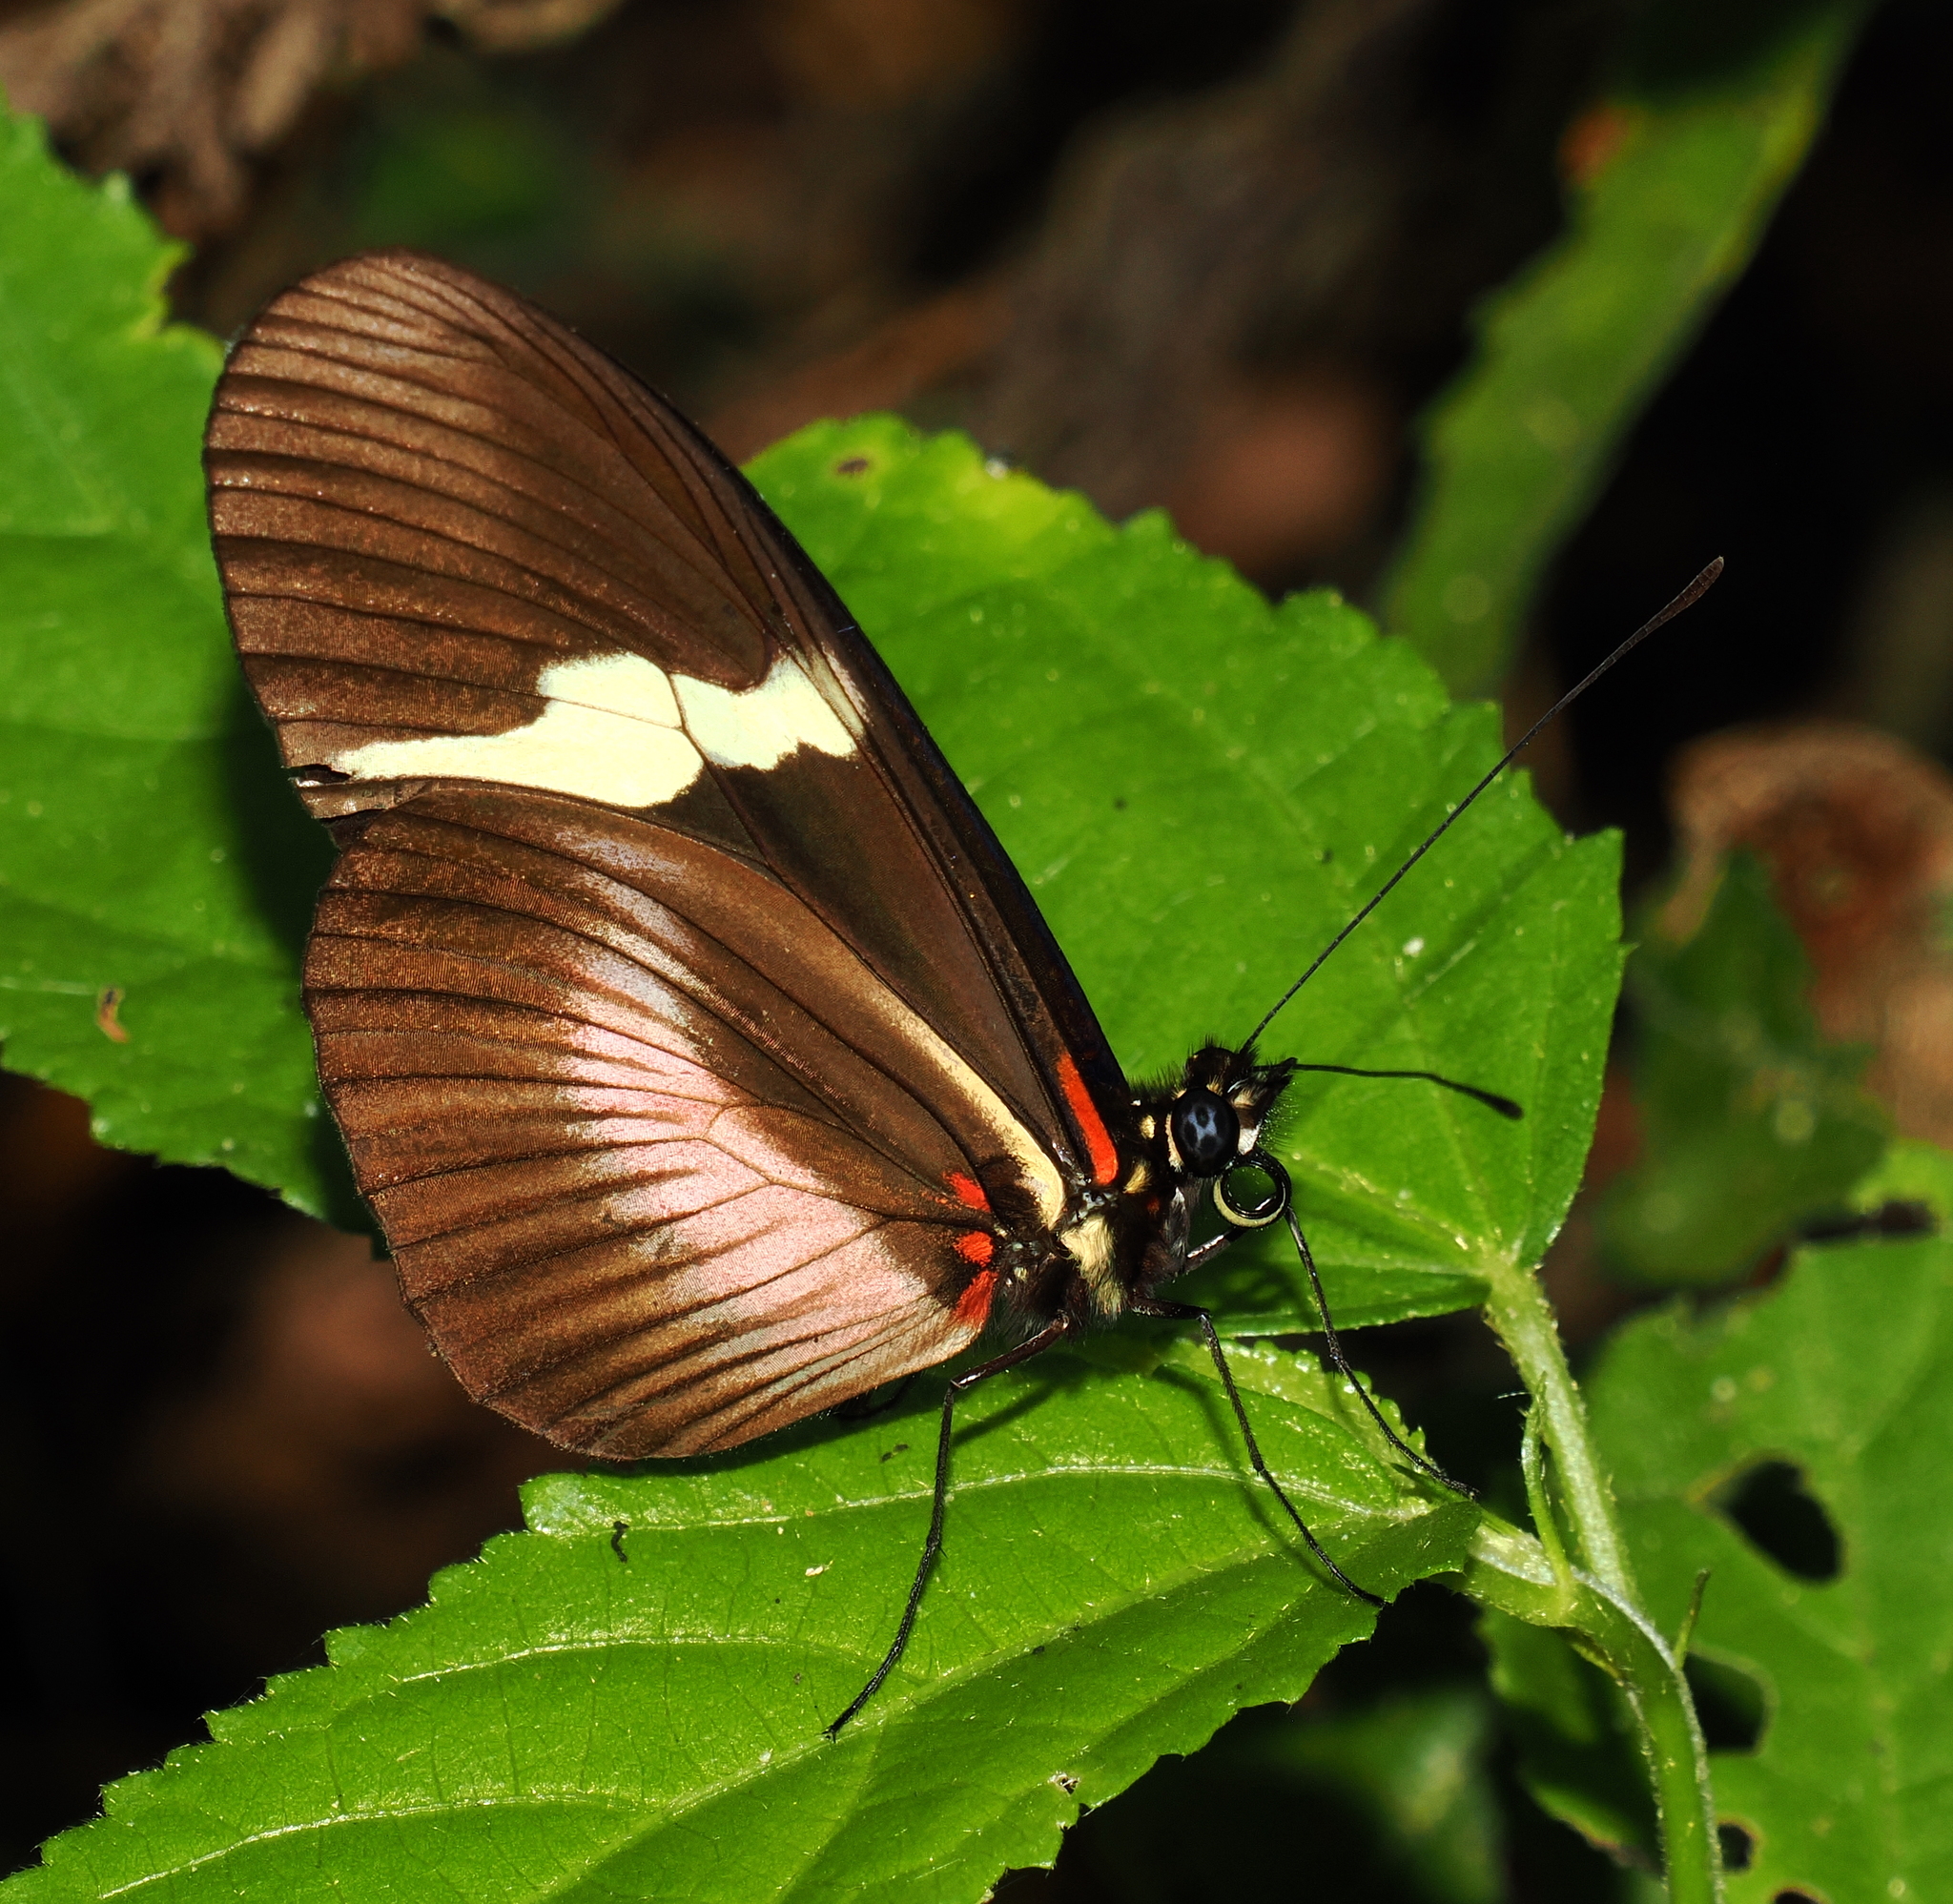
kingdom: Animalia
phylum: Arthropoda
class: Insecta
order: Lepidoptera
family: Nymphalidae
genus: Heliconius
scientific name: Heliconius clysonymus
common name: Clysonymus longwing
